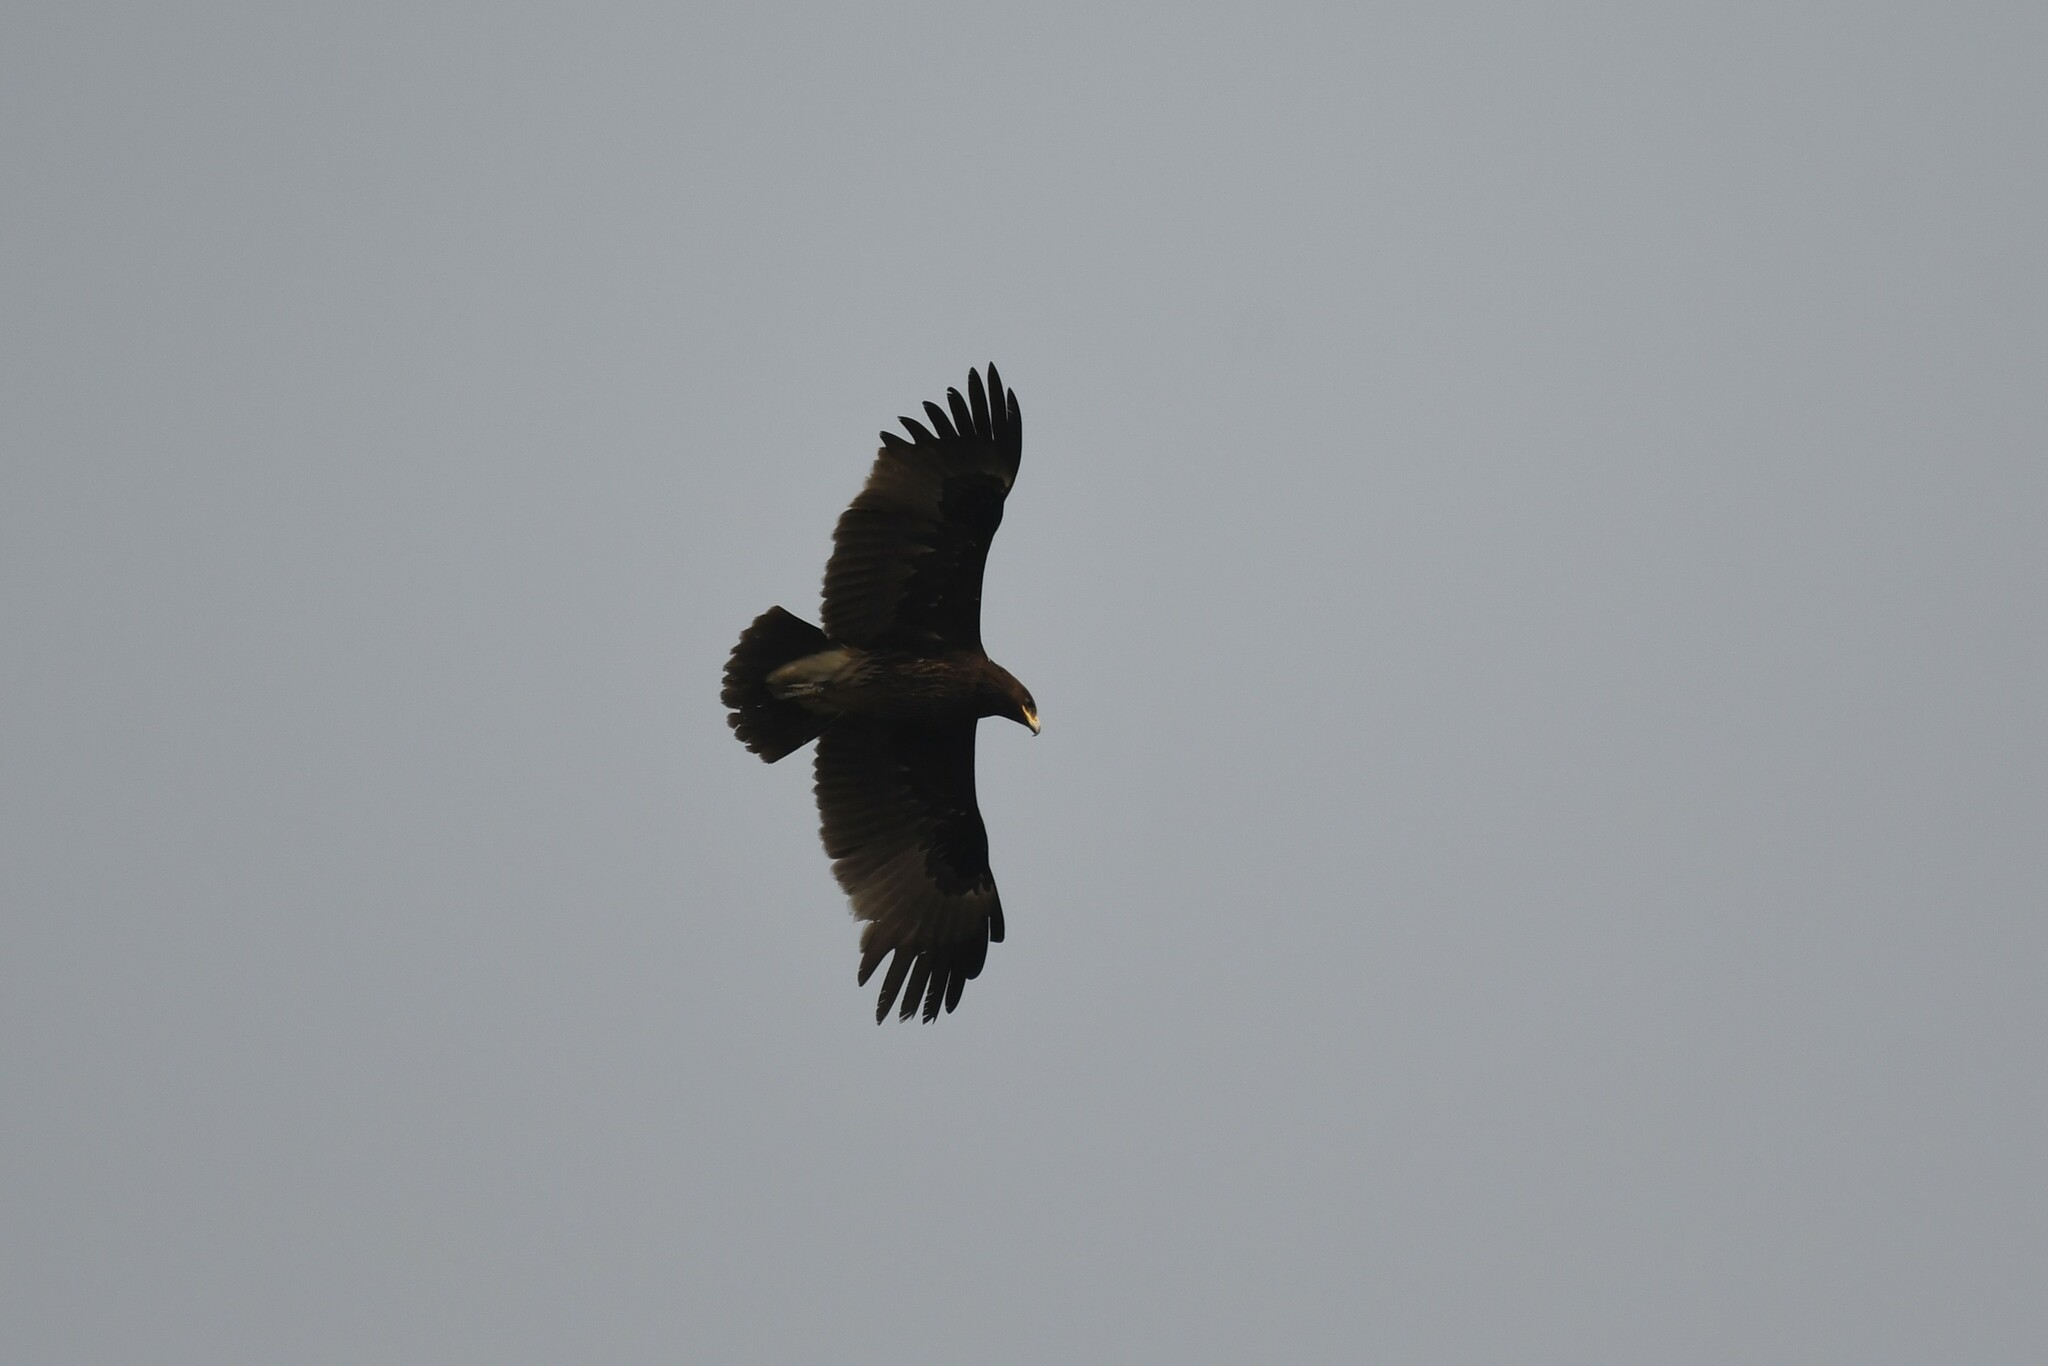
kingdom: Animalia
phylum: Chordata
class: Aves
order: Accipitriformes
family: Accipitridae
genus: Aquila
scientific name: Aquila clanga
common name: Greater spotted eagle
